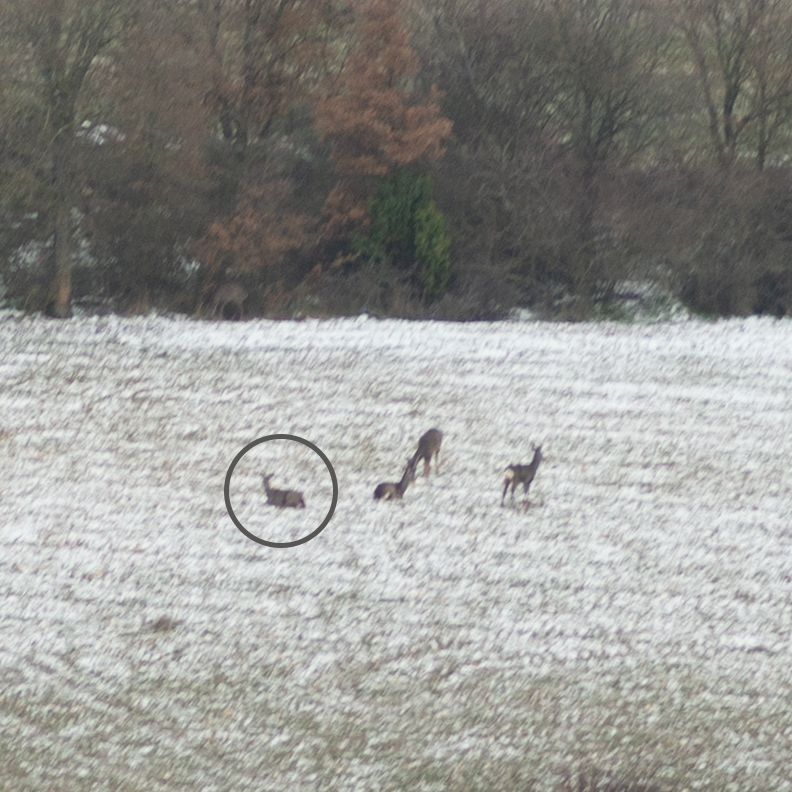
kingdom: Animalia
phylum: Chordata
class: Mammalia
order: Artiodactyla
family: Cervidae
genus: Capreolus
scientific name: Capreolus capreolus
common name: Western roe deer
